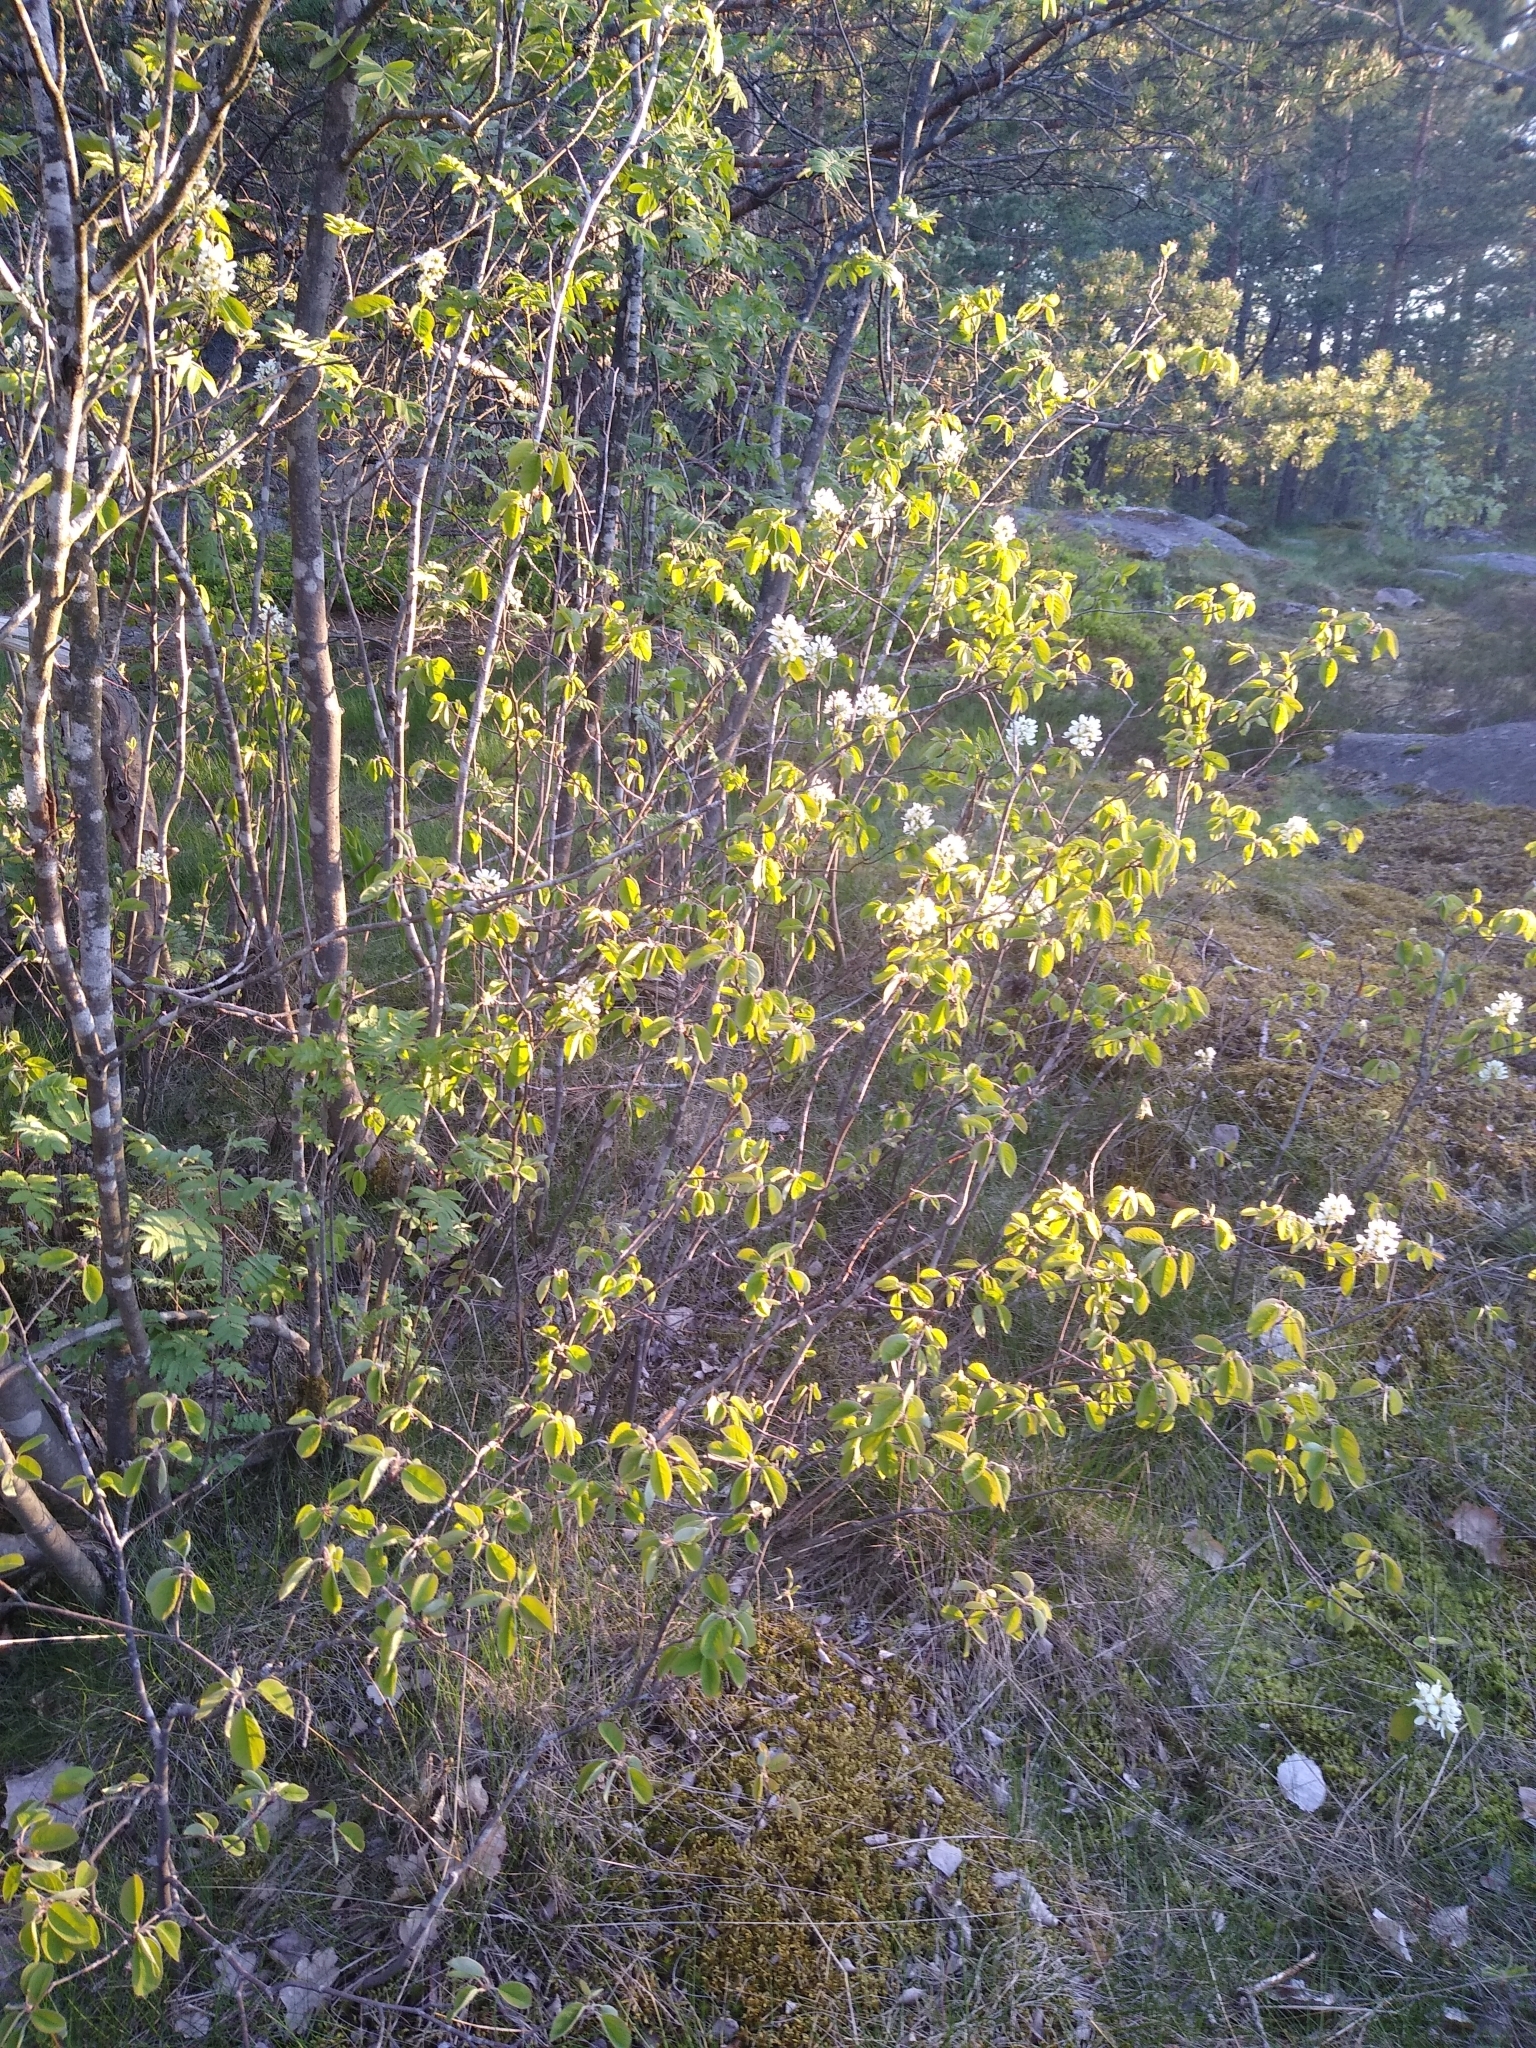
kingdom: Plantae
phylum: Tracheophyta
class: Magnoliopsida
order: Rosales
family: Rosaceae
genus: Amelanchier
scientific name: Amelanchier
